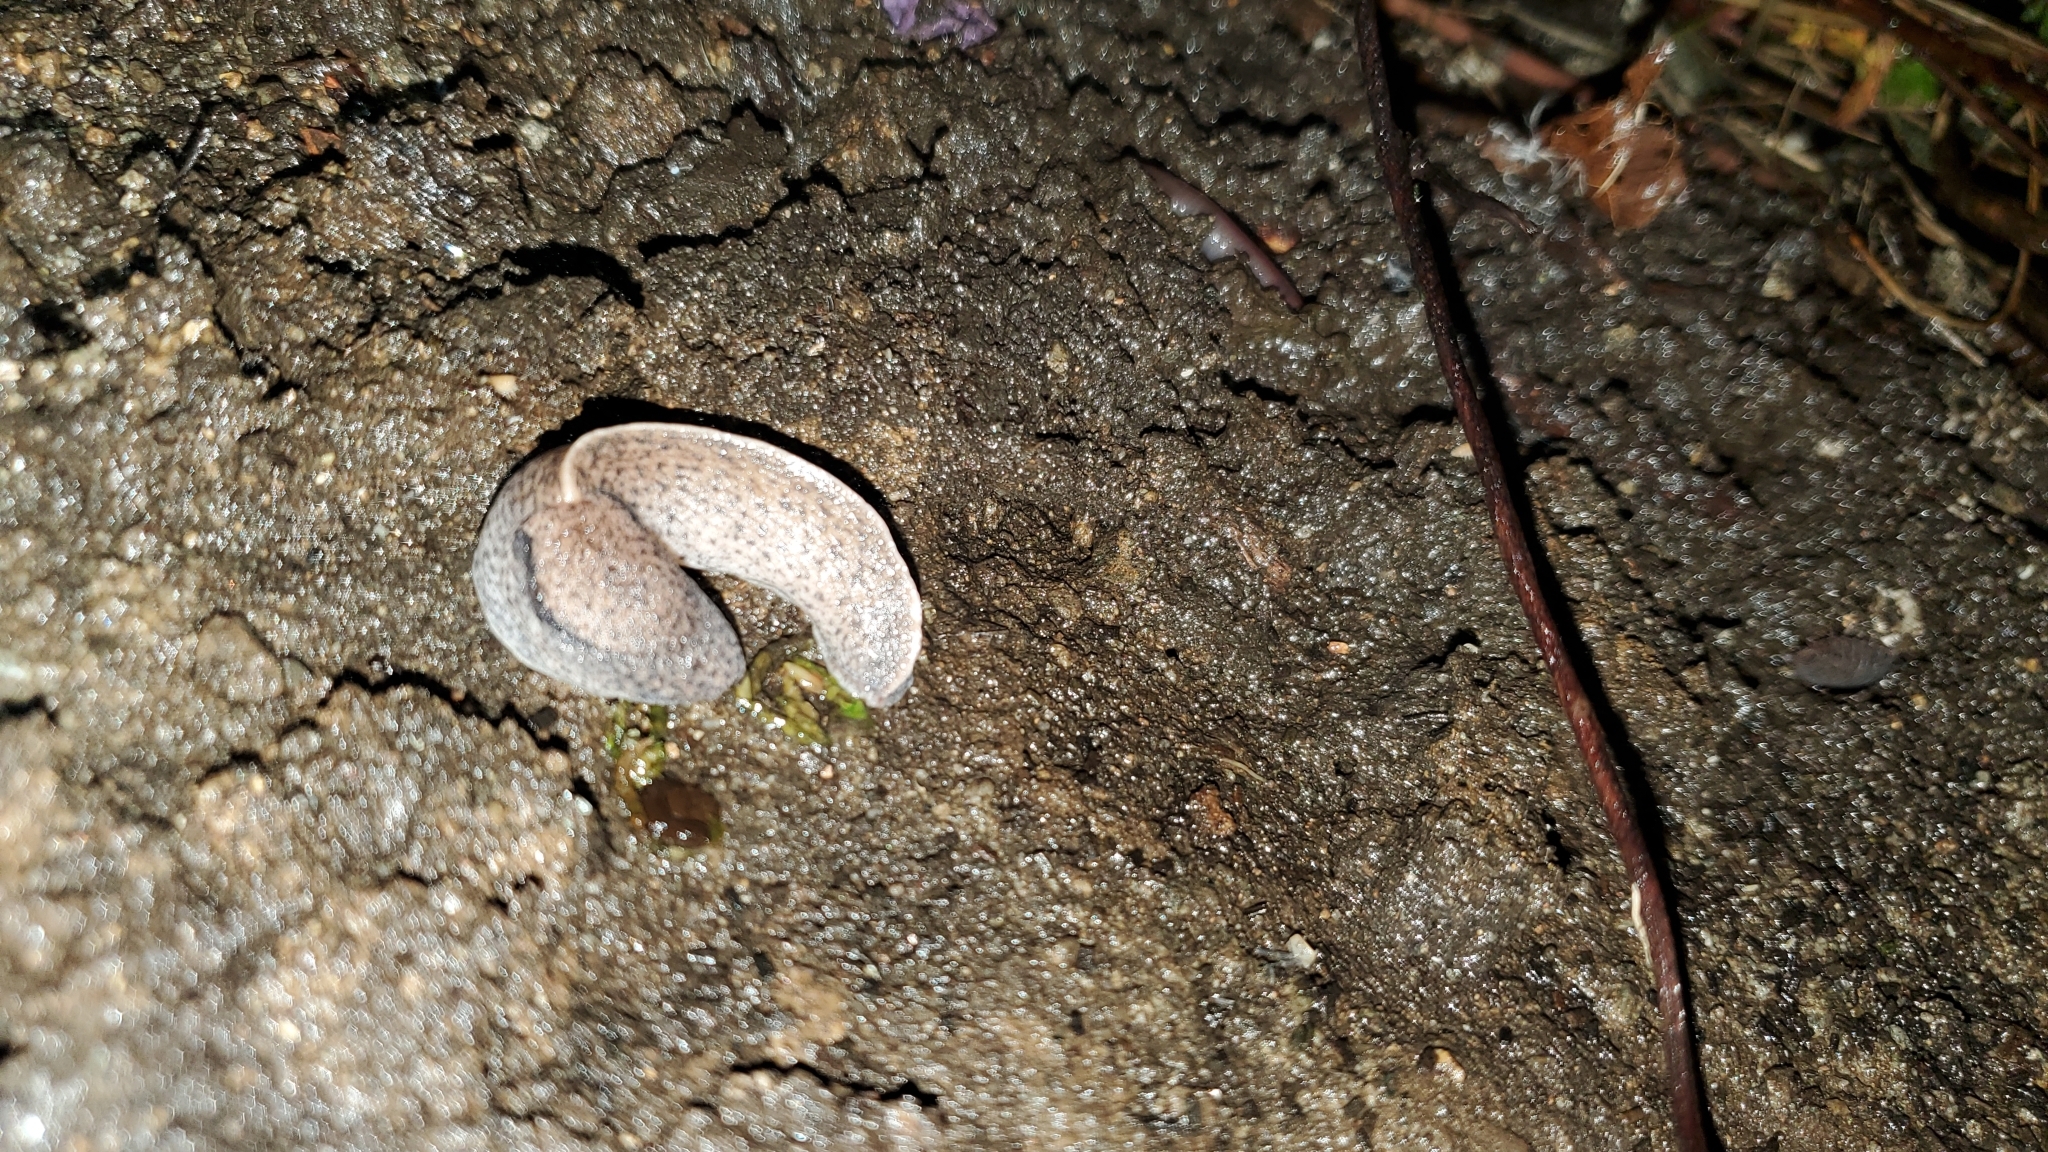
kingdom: Animalia
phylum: Mollusca
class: Gastropoda
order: Stylommatophora
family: Milacidae
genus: Tandonia
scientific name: Tandonia rustica
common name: Bulb-eating slug
